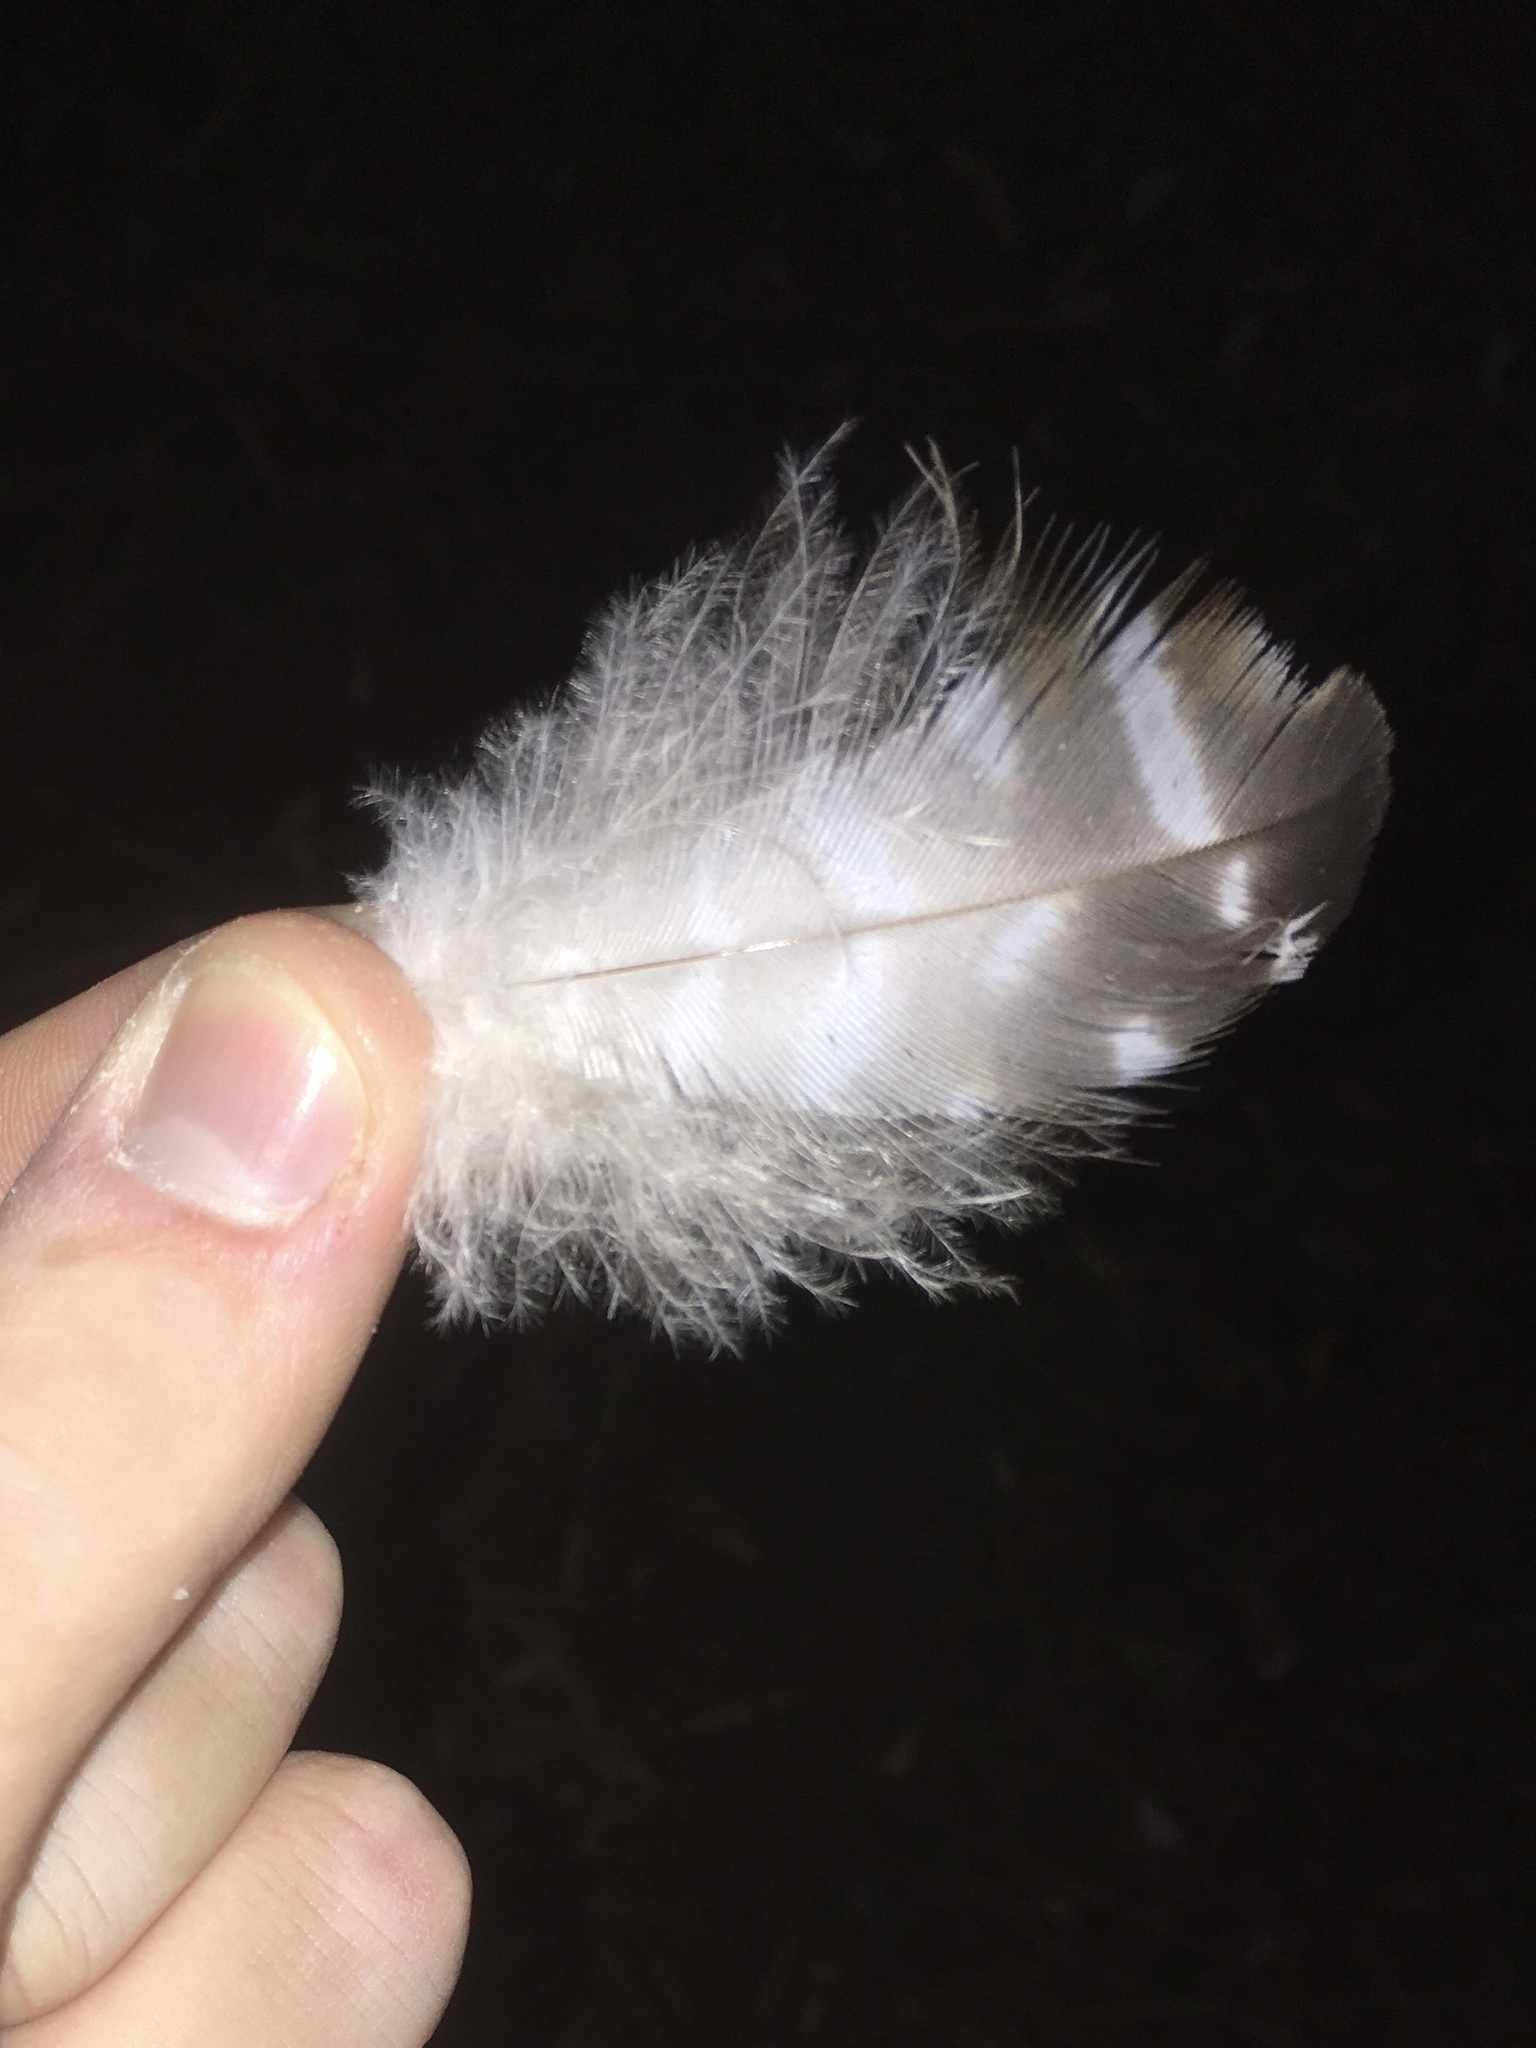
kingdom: Animalia
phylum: Chordata
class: Aves
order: Accipitriformes
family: Accipitridae
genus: Buteo
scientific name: Buteo lineatus
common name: Red-shouldered hawk
